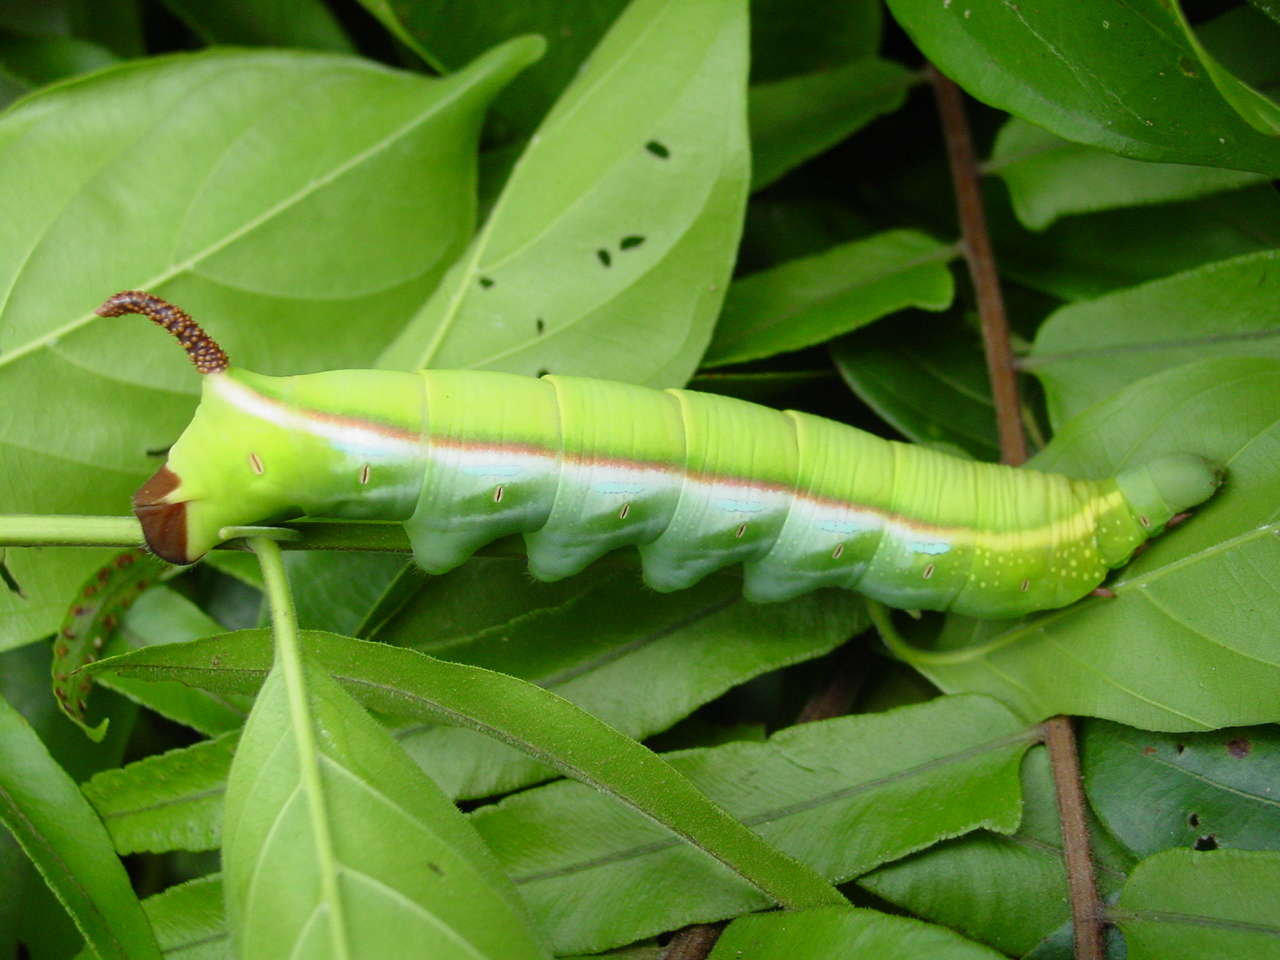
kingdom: Animalia
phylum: Arthropoda
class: Insecta
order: Lepidoptera
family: Sphingidae
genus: Daphnis
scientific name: Daphnis hypothous
